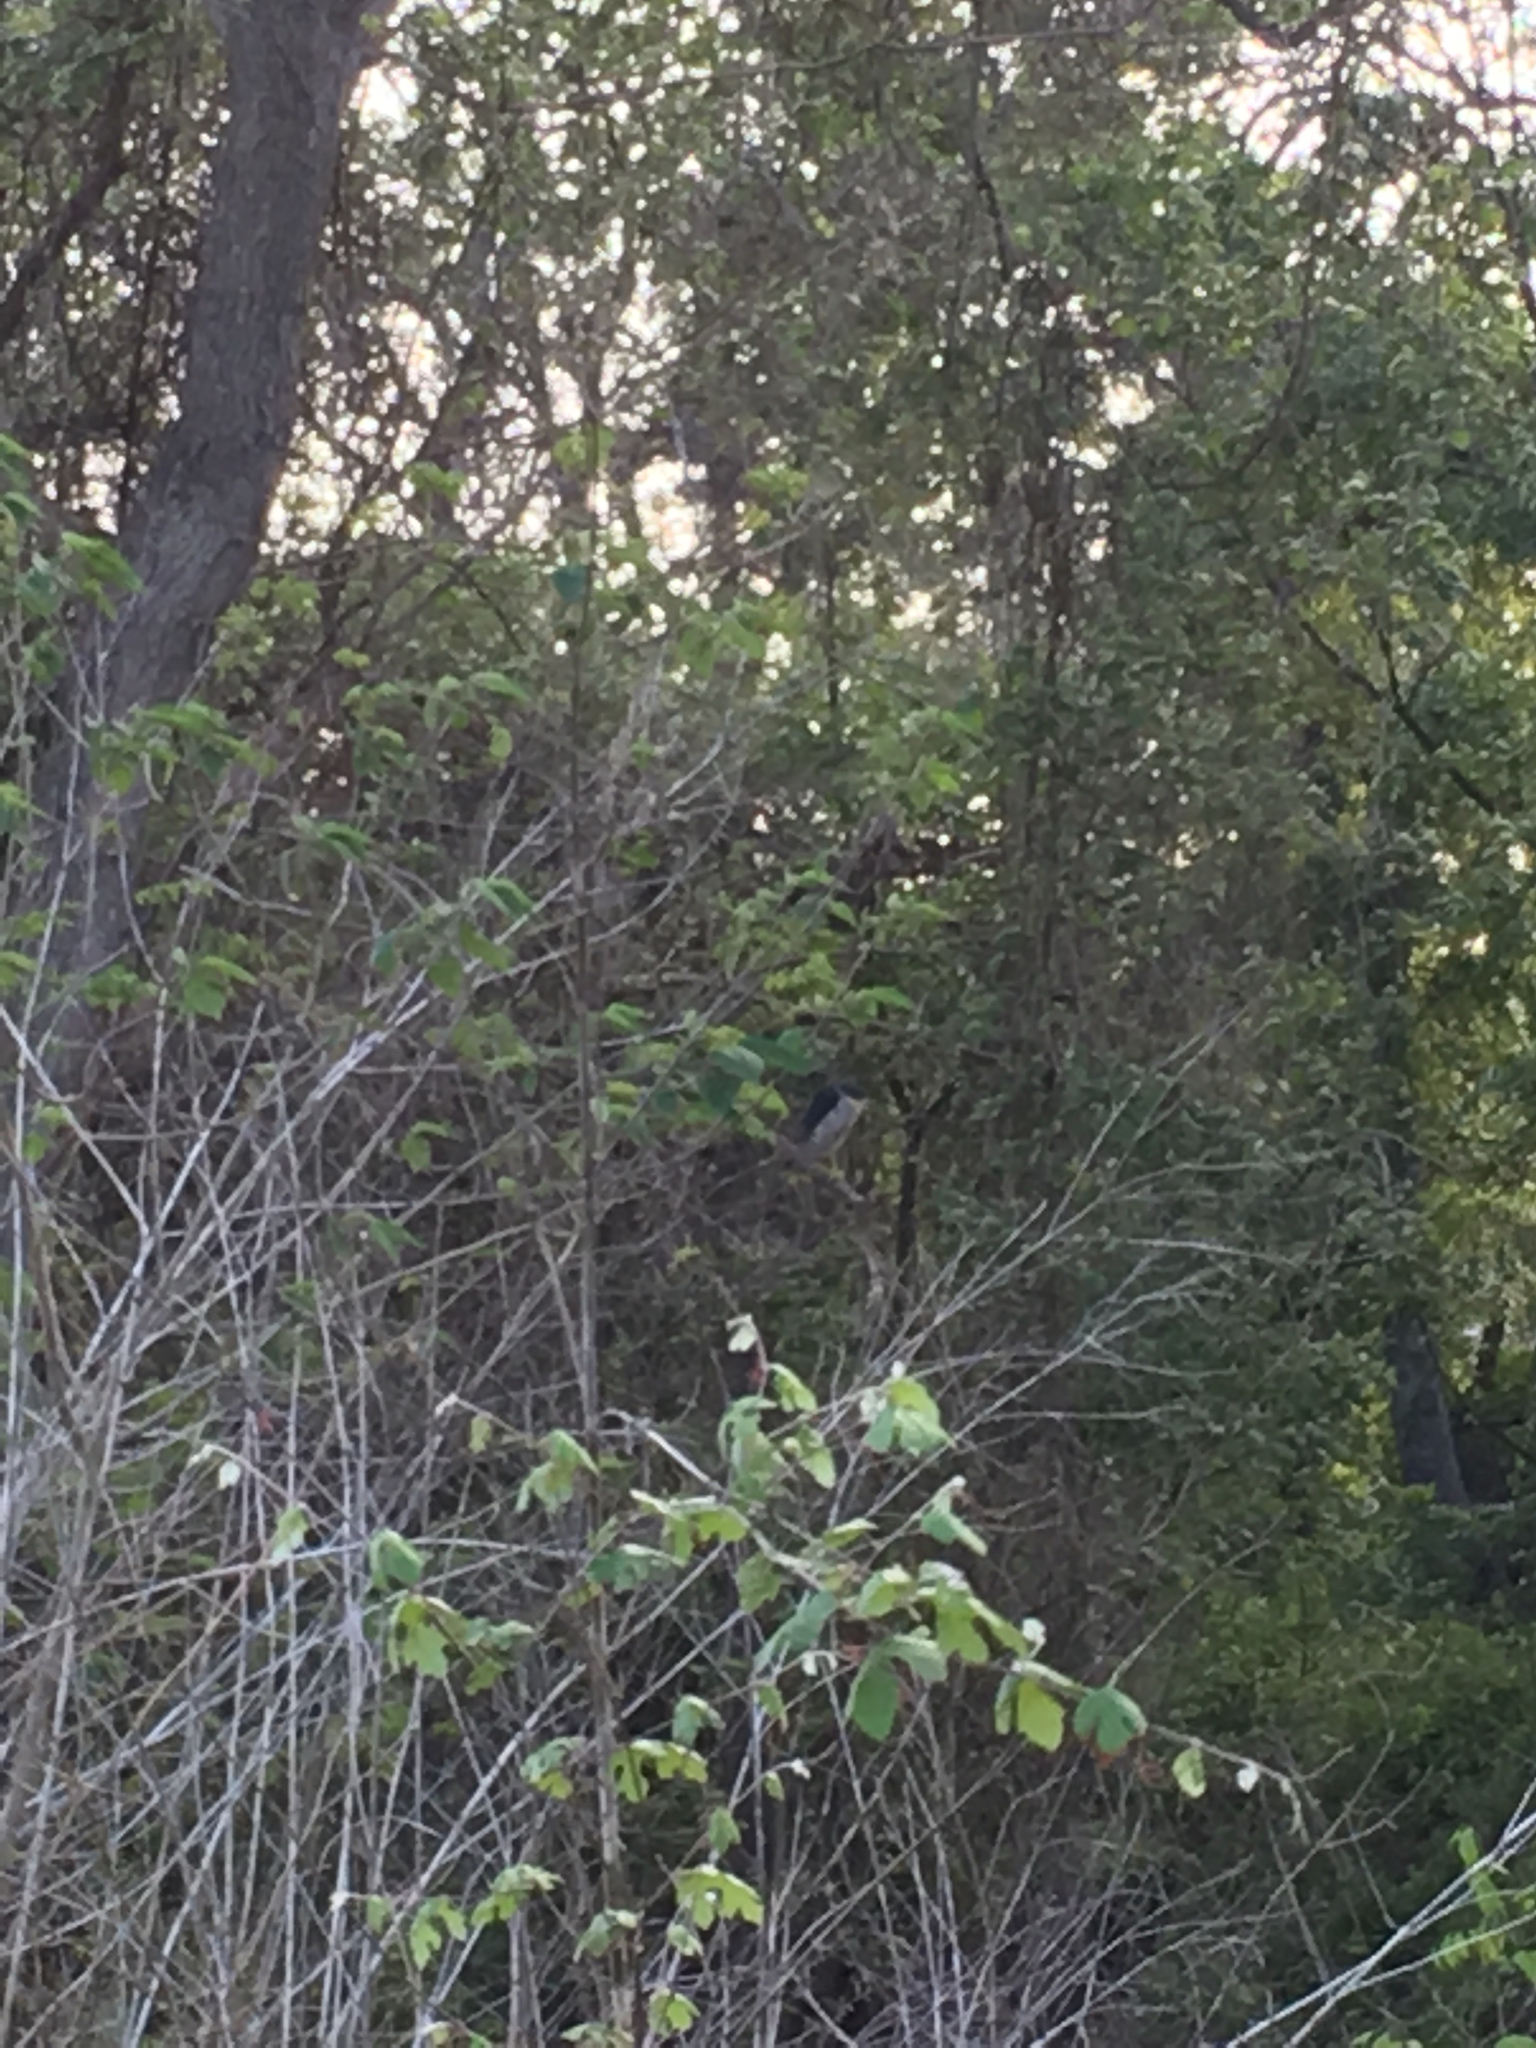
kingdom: Animalia
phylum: Chordata
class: Aves
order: Pelecaniformes
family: Ardeidae
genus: Nycticorax
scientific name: Nycticorax nycticorax
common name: Black-crowned night heron
